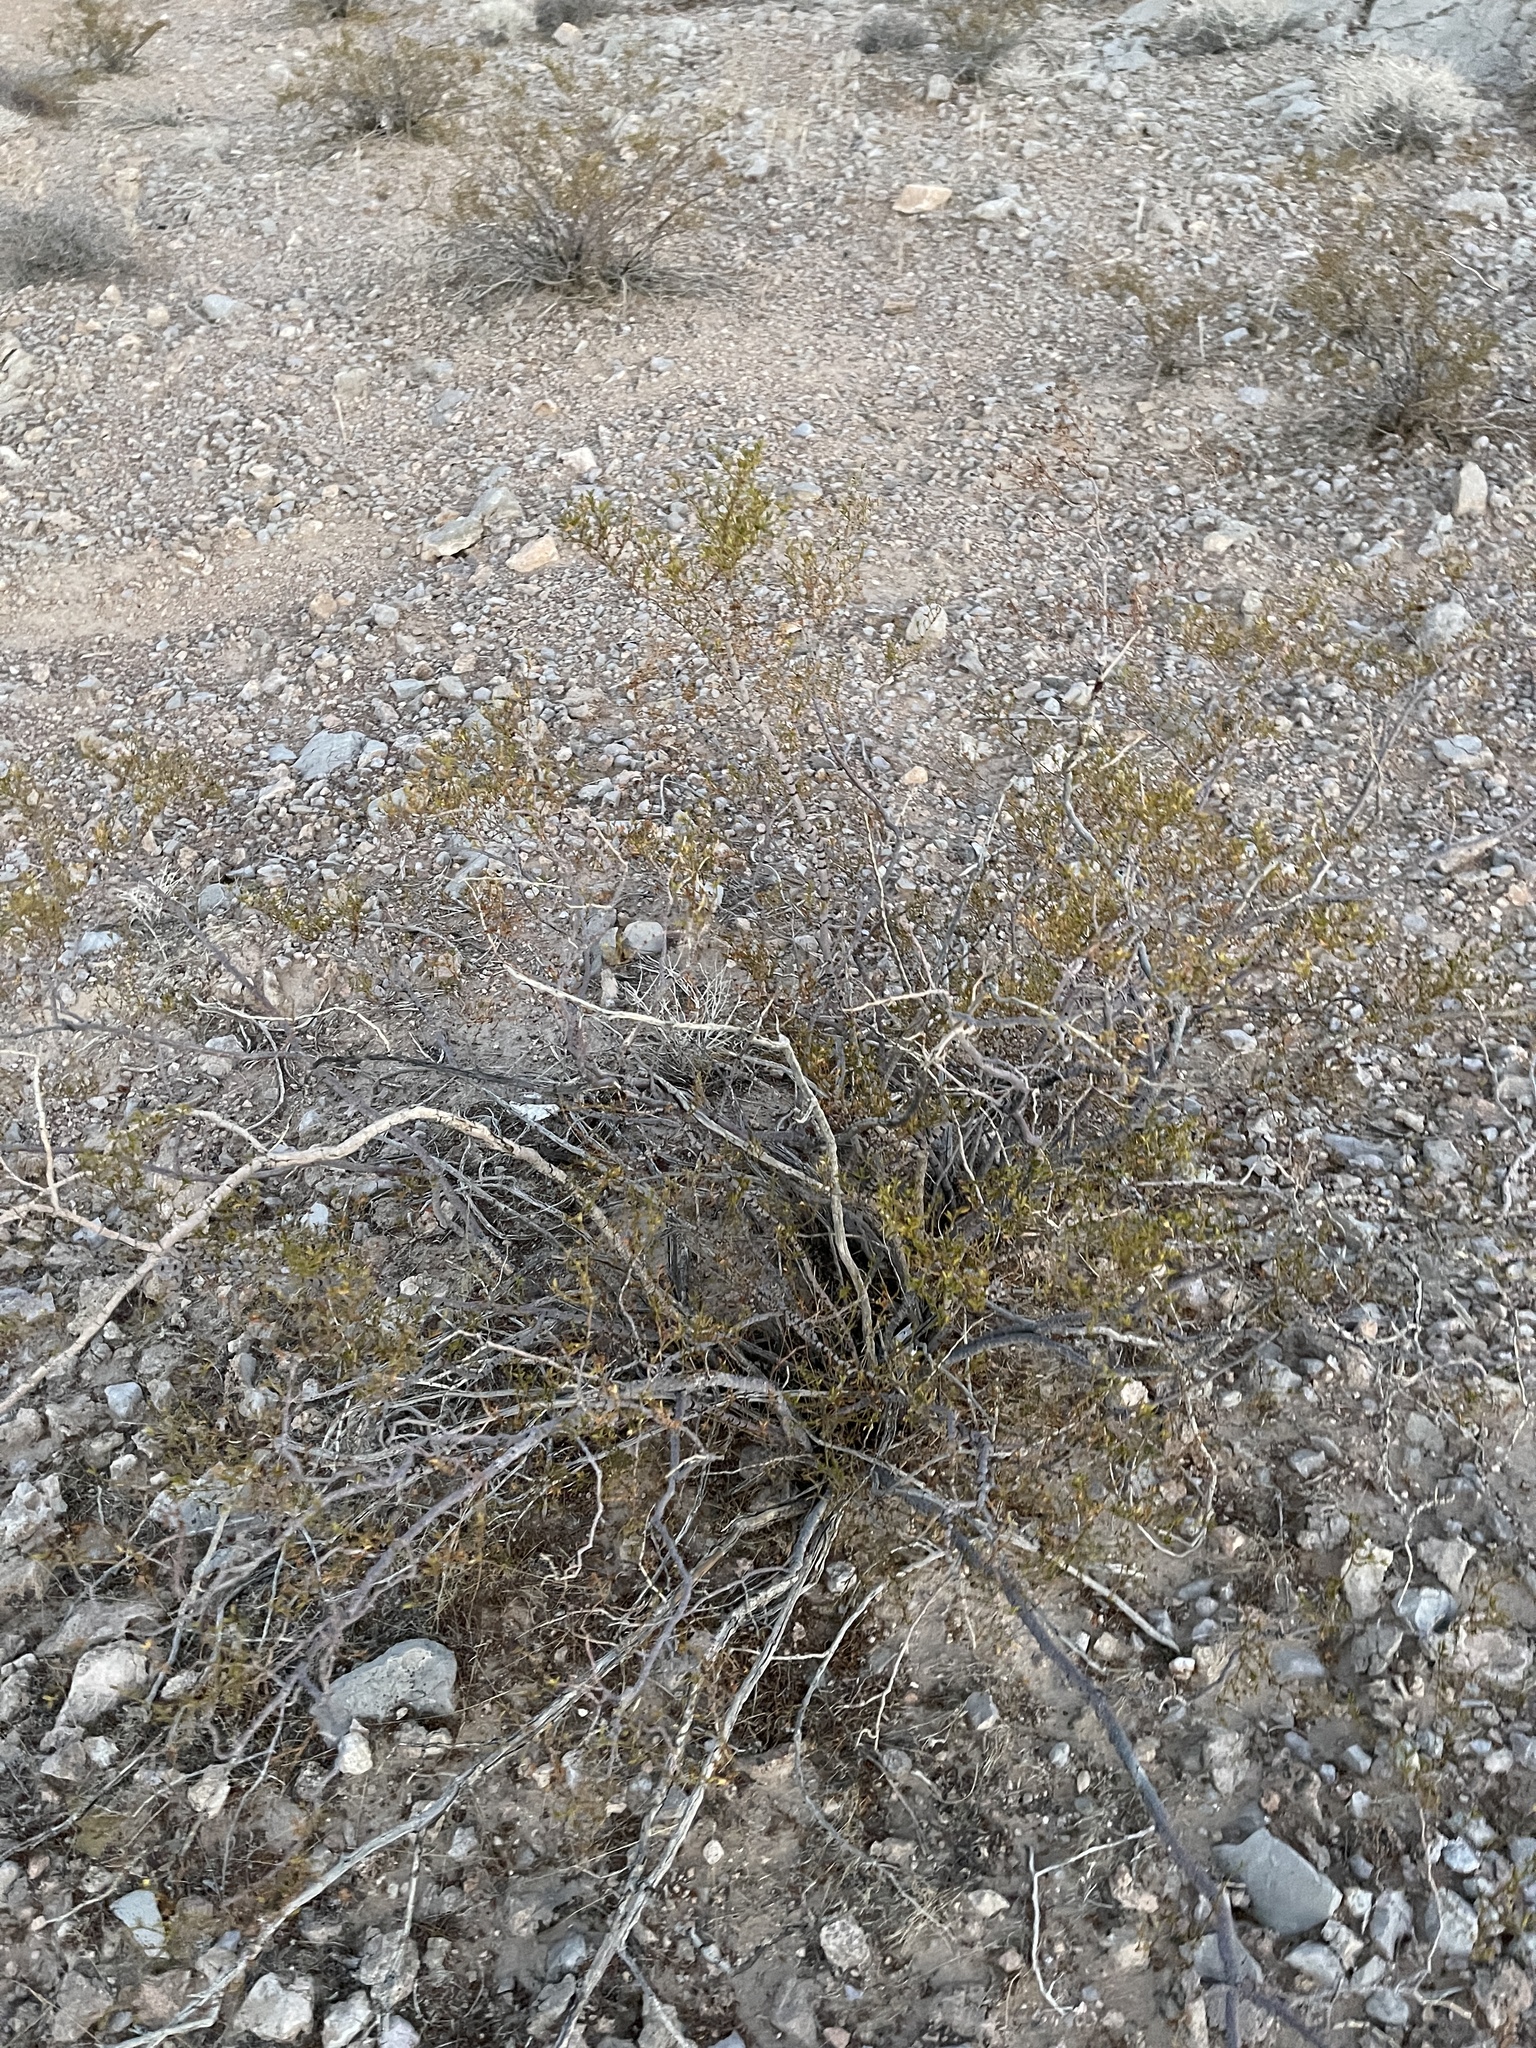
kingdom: Plantae
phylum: Tracheophyta
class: Magnoliopsida
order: Zygophyllales
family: Zygophyllaceae
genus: Larrea
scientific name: Larrea tridentata
